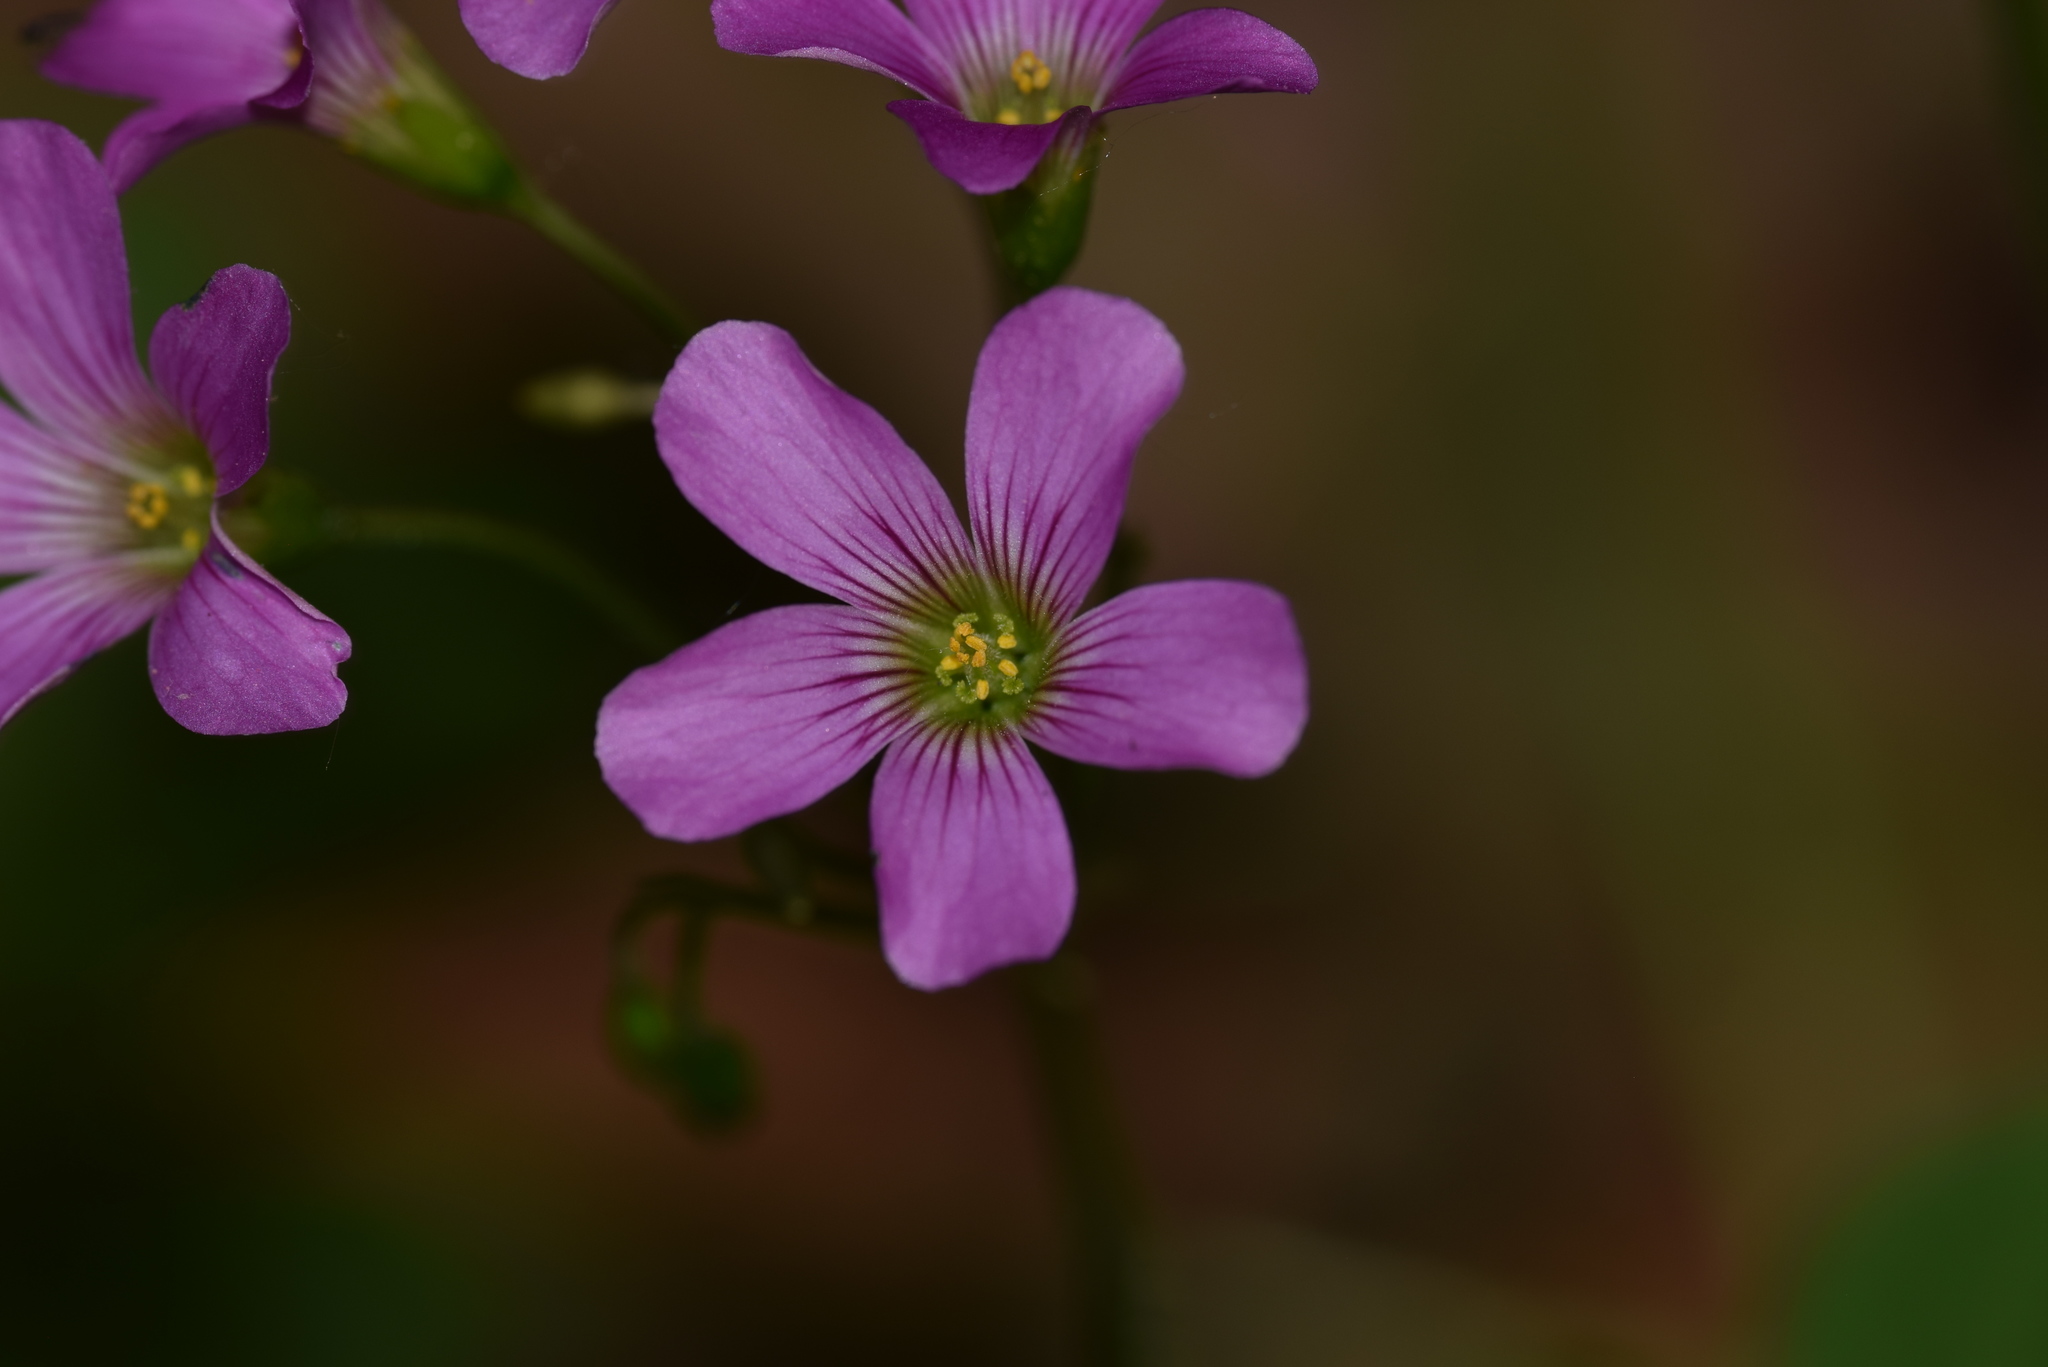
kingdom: Plantae
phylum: Tracheophyta
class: Magnoliopsida
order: Oxalidales
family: Oxalidaceae
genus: Oxalis
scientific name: Oxalis debilis
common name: Large-flowered pink-sorrel
